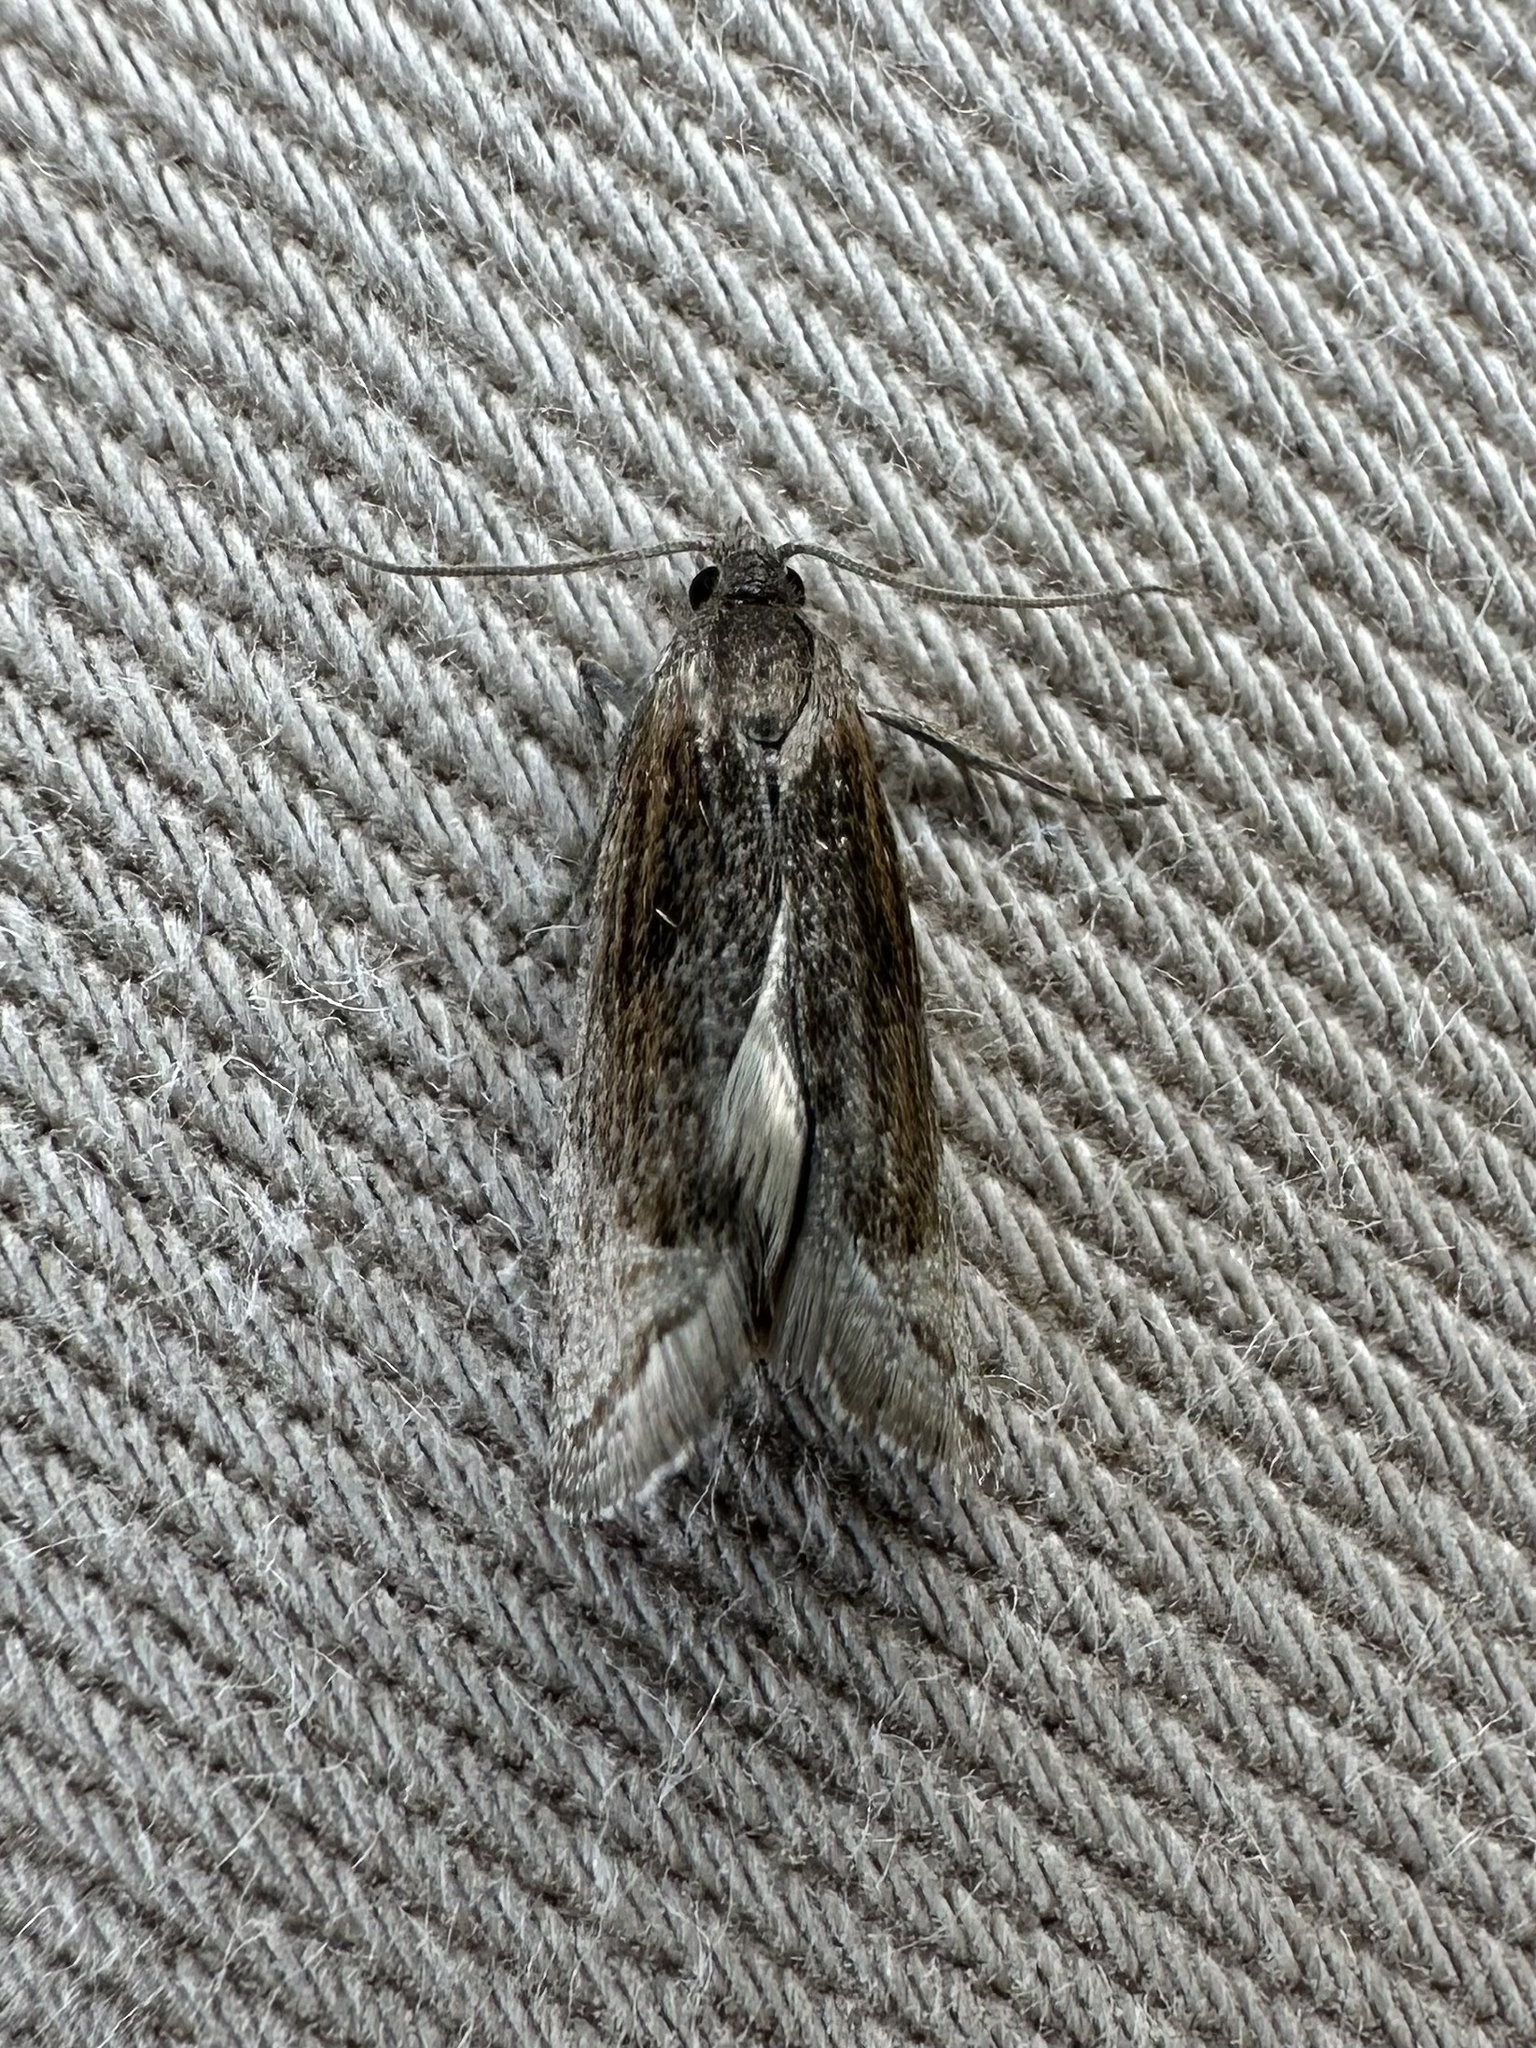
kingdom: Animalia
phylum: Arthropoda
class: Insecta
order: Lepidoptera
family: Tortricidae
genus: Eucosma
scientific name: Eucosma kokana
